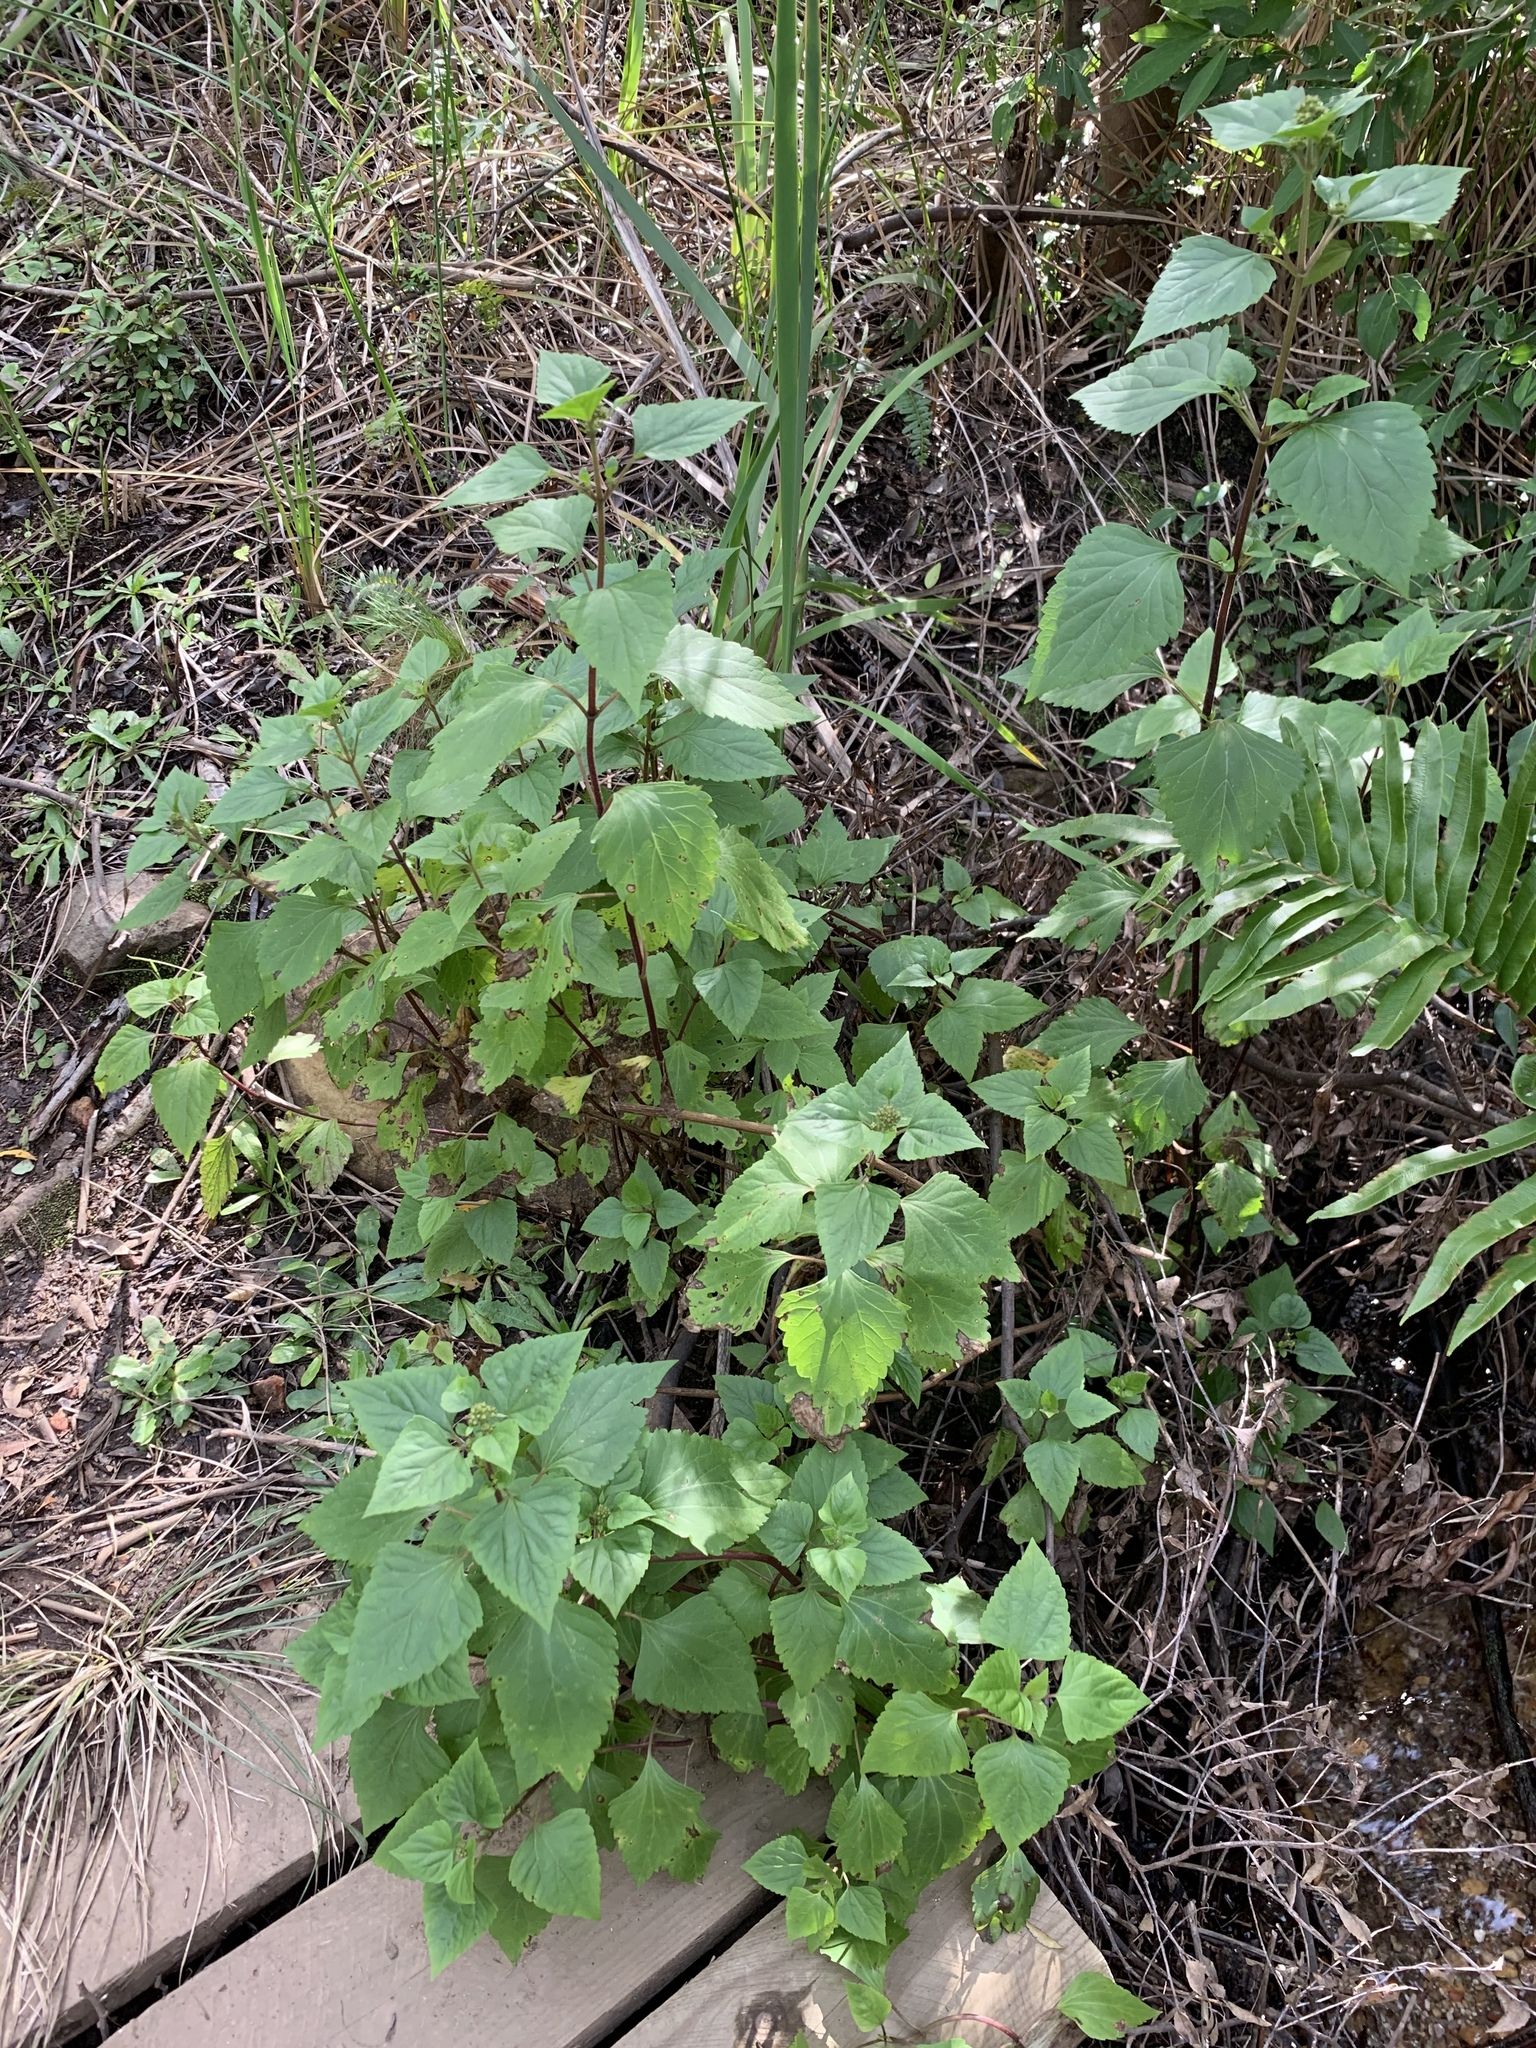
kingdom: Plantae
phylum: Tracheophyta
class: Magnoliopsida
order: Asterales
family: Asteraceae
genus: Ageratina
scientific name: Ageratina adenophora
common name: Sticky snakeroot
